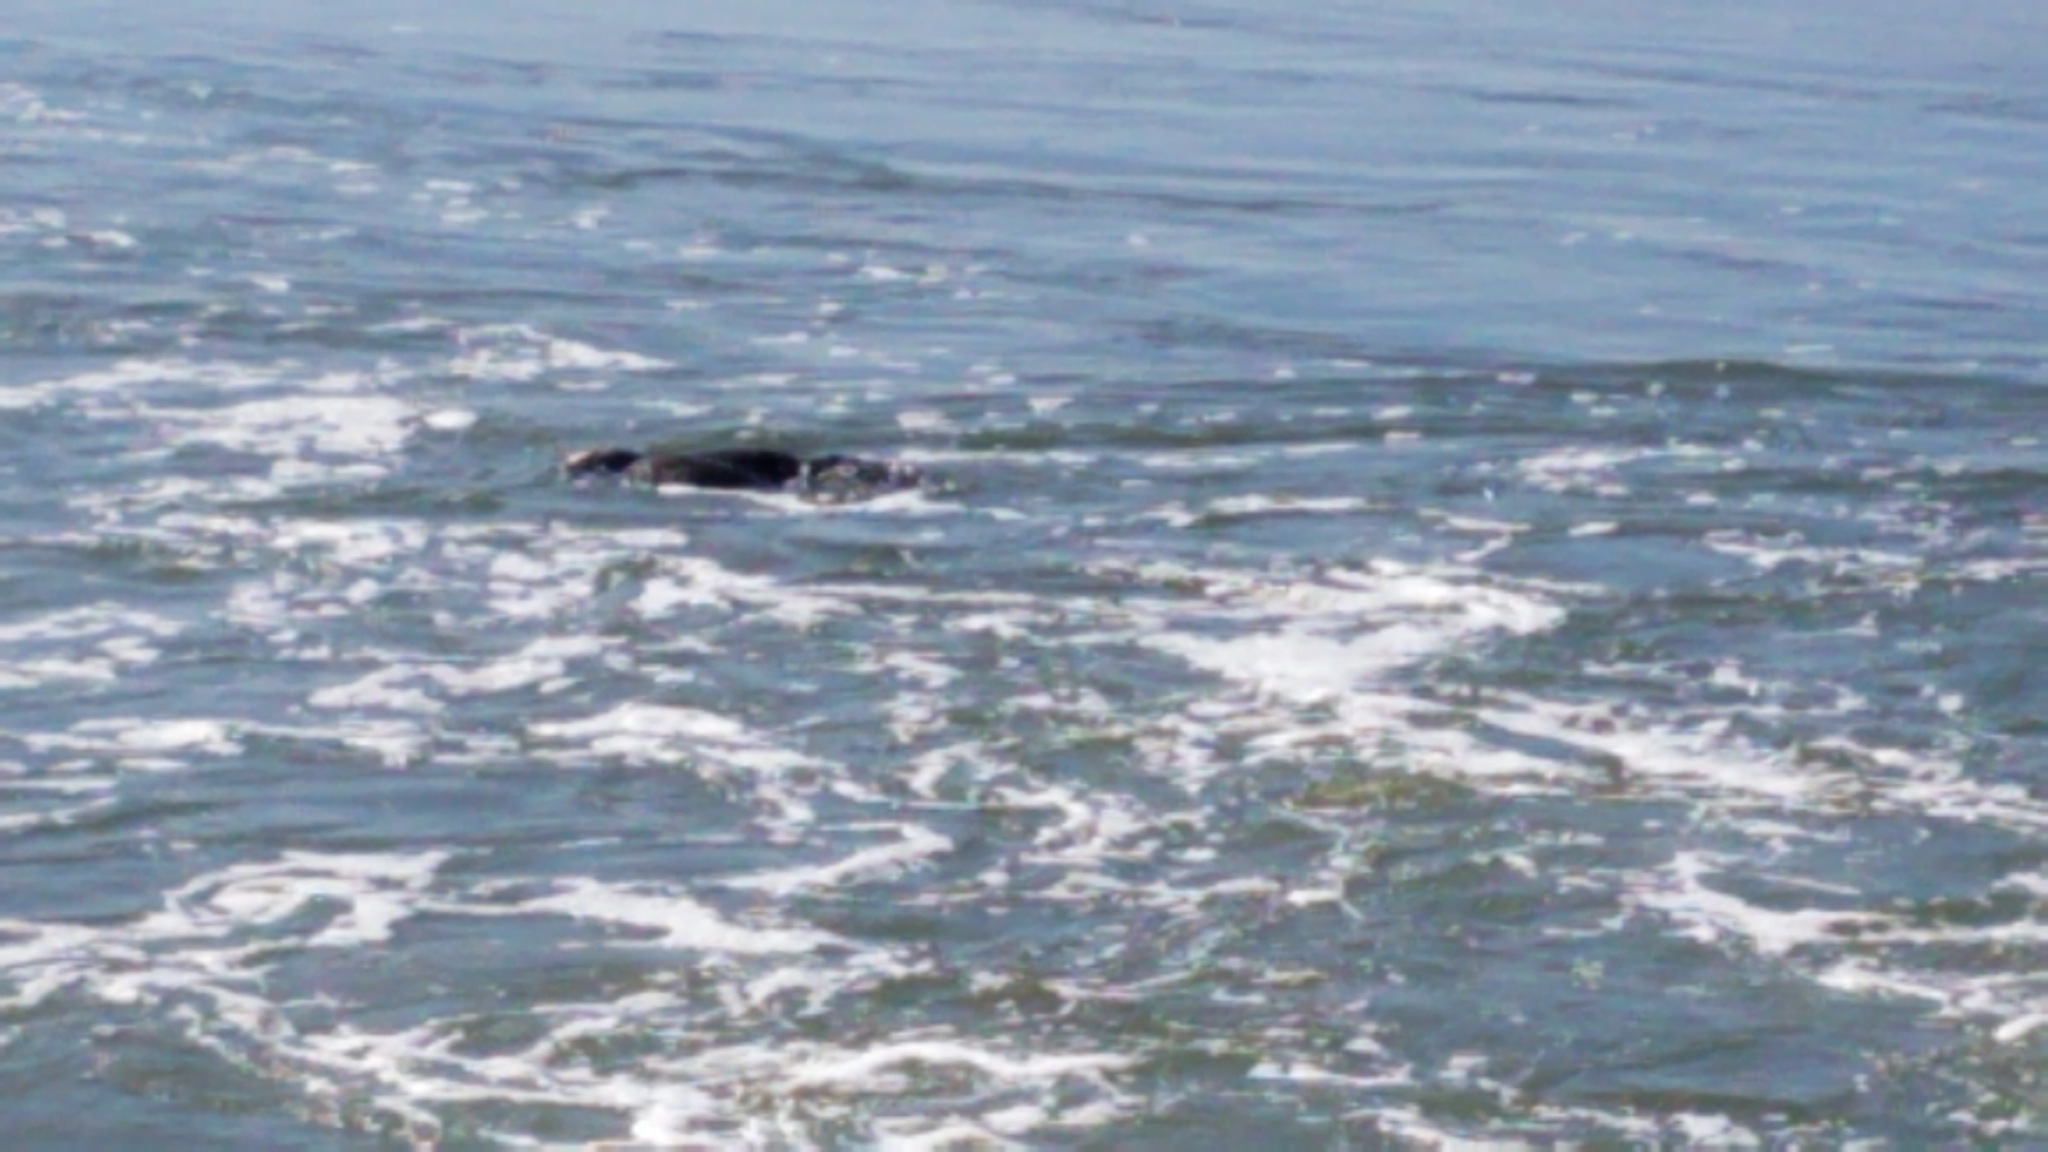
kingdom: Animalia
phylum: Chordata
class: Mammalia
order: Carnivora
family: Mustelidae
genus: Enhydra
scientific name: Enhydra lutris
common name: Sea otter
